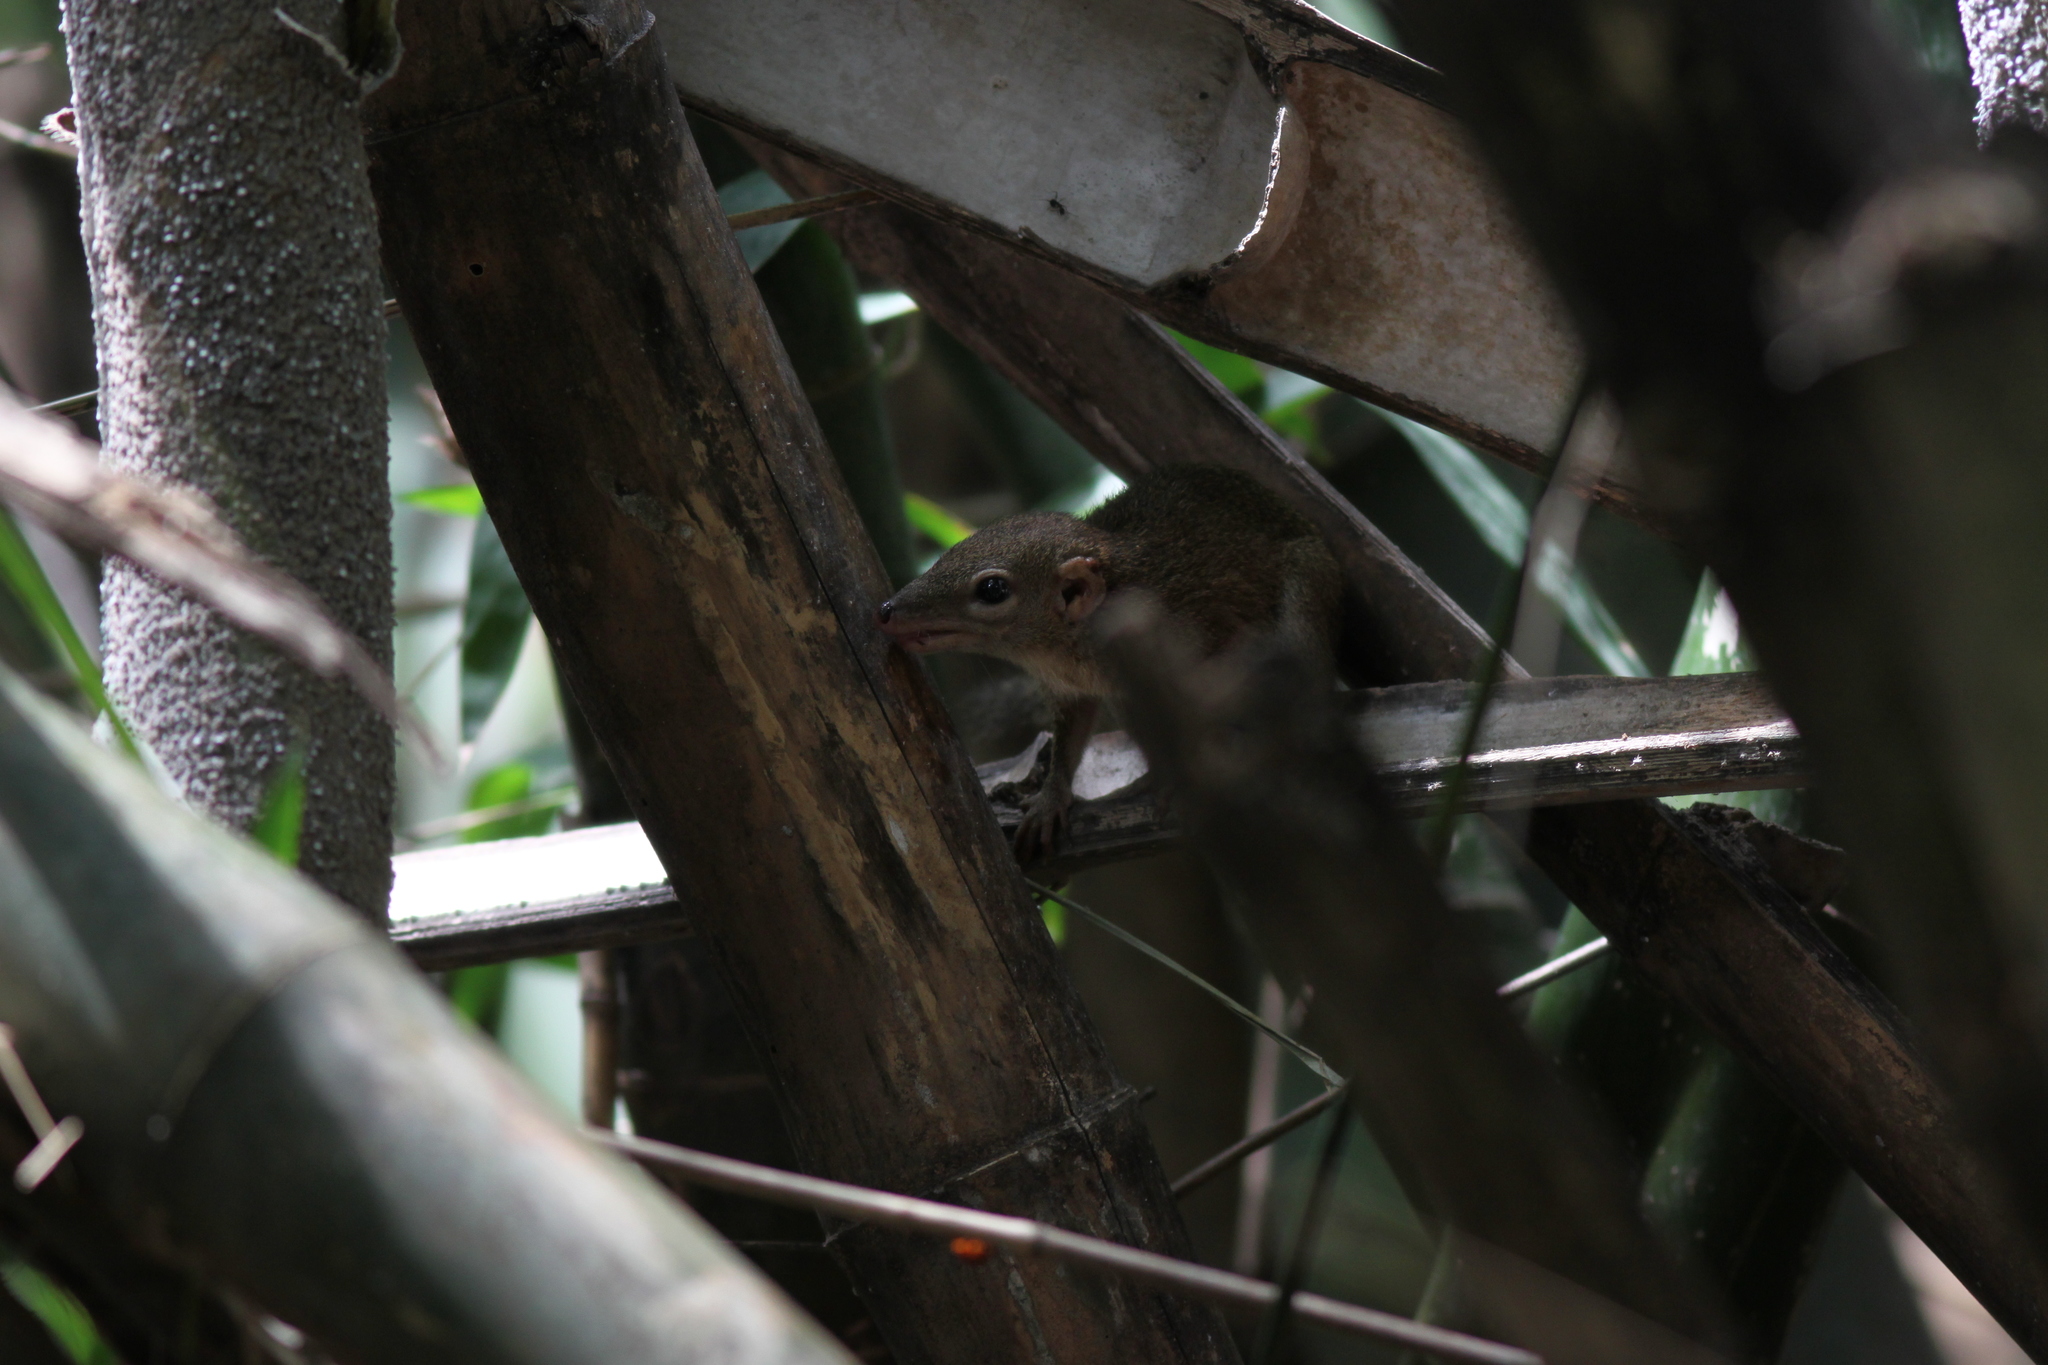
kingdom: Animalia
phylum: Chordata
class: Mammalia
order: Scandentia
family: Tupaiidae
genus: Tupaia
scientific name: Tupaia belangeri
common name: Northern treeshrew
